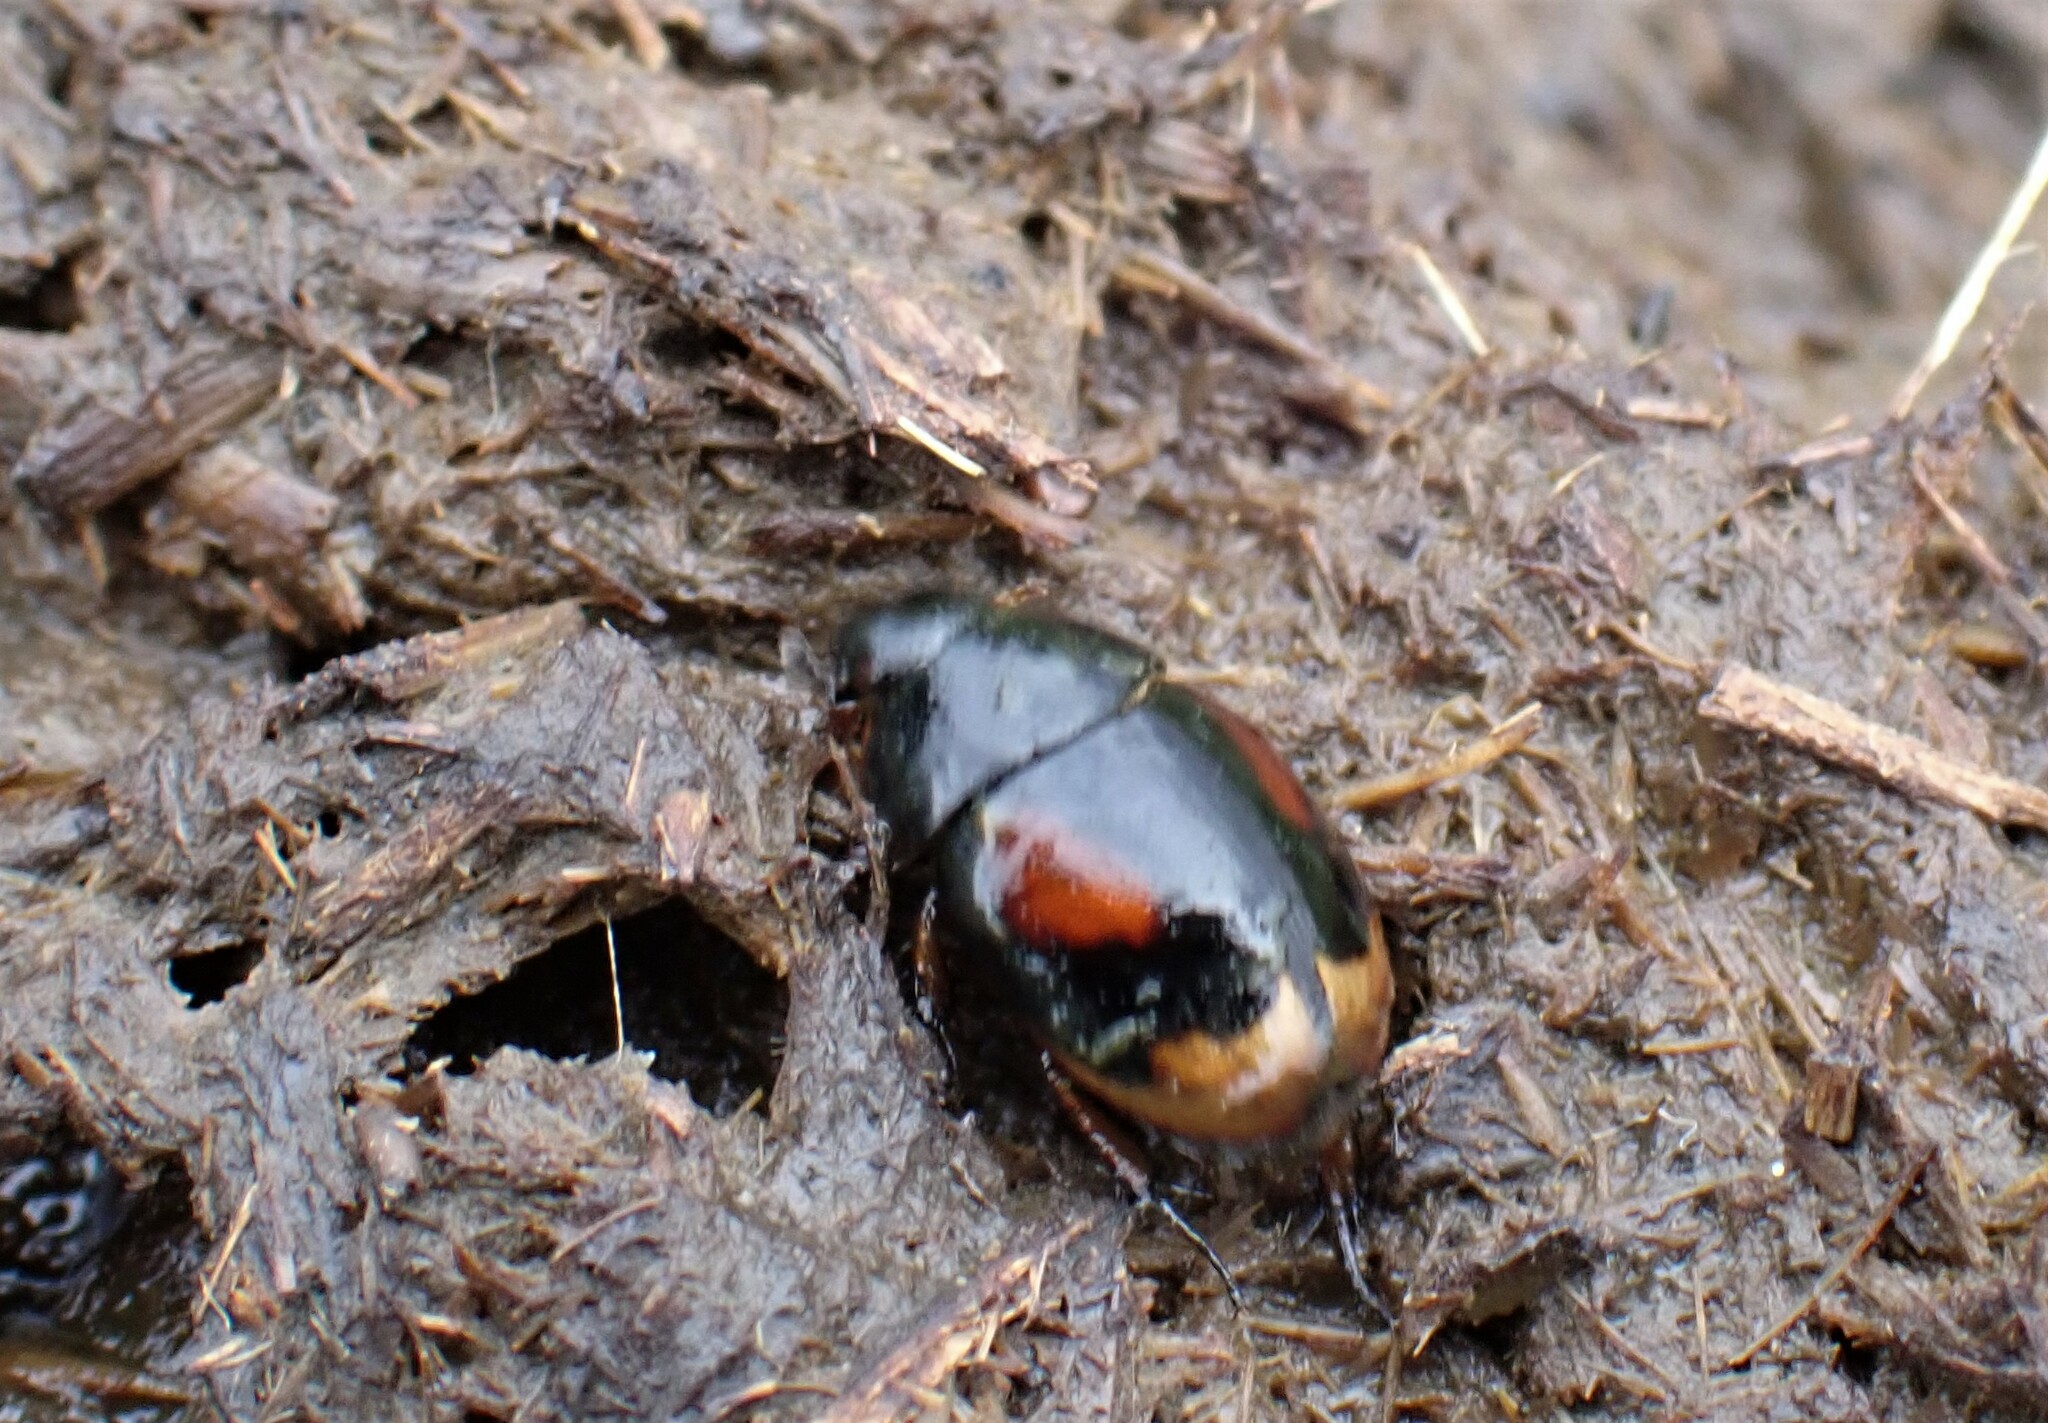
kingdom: Animalia
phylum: Arthropoda
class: Insecta
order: Coleoptera
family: Hydrophilidae
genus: Sphaeridium
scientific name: Sphaeridium scarabaeoides
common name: Water scavenger beetle
